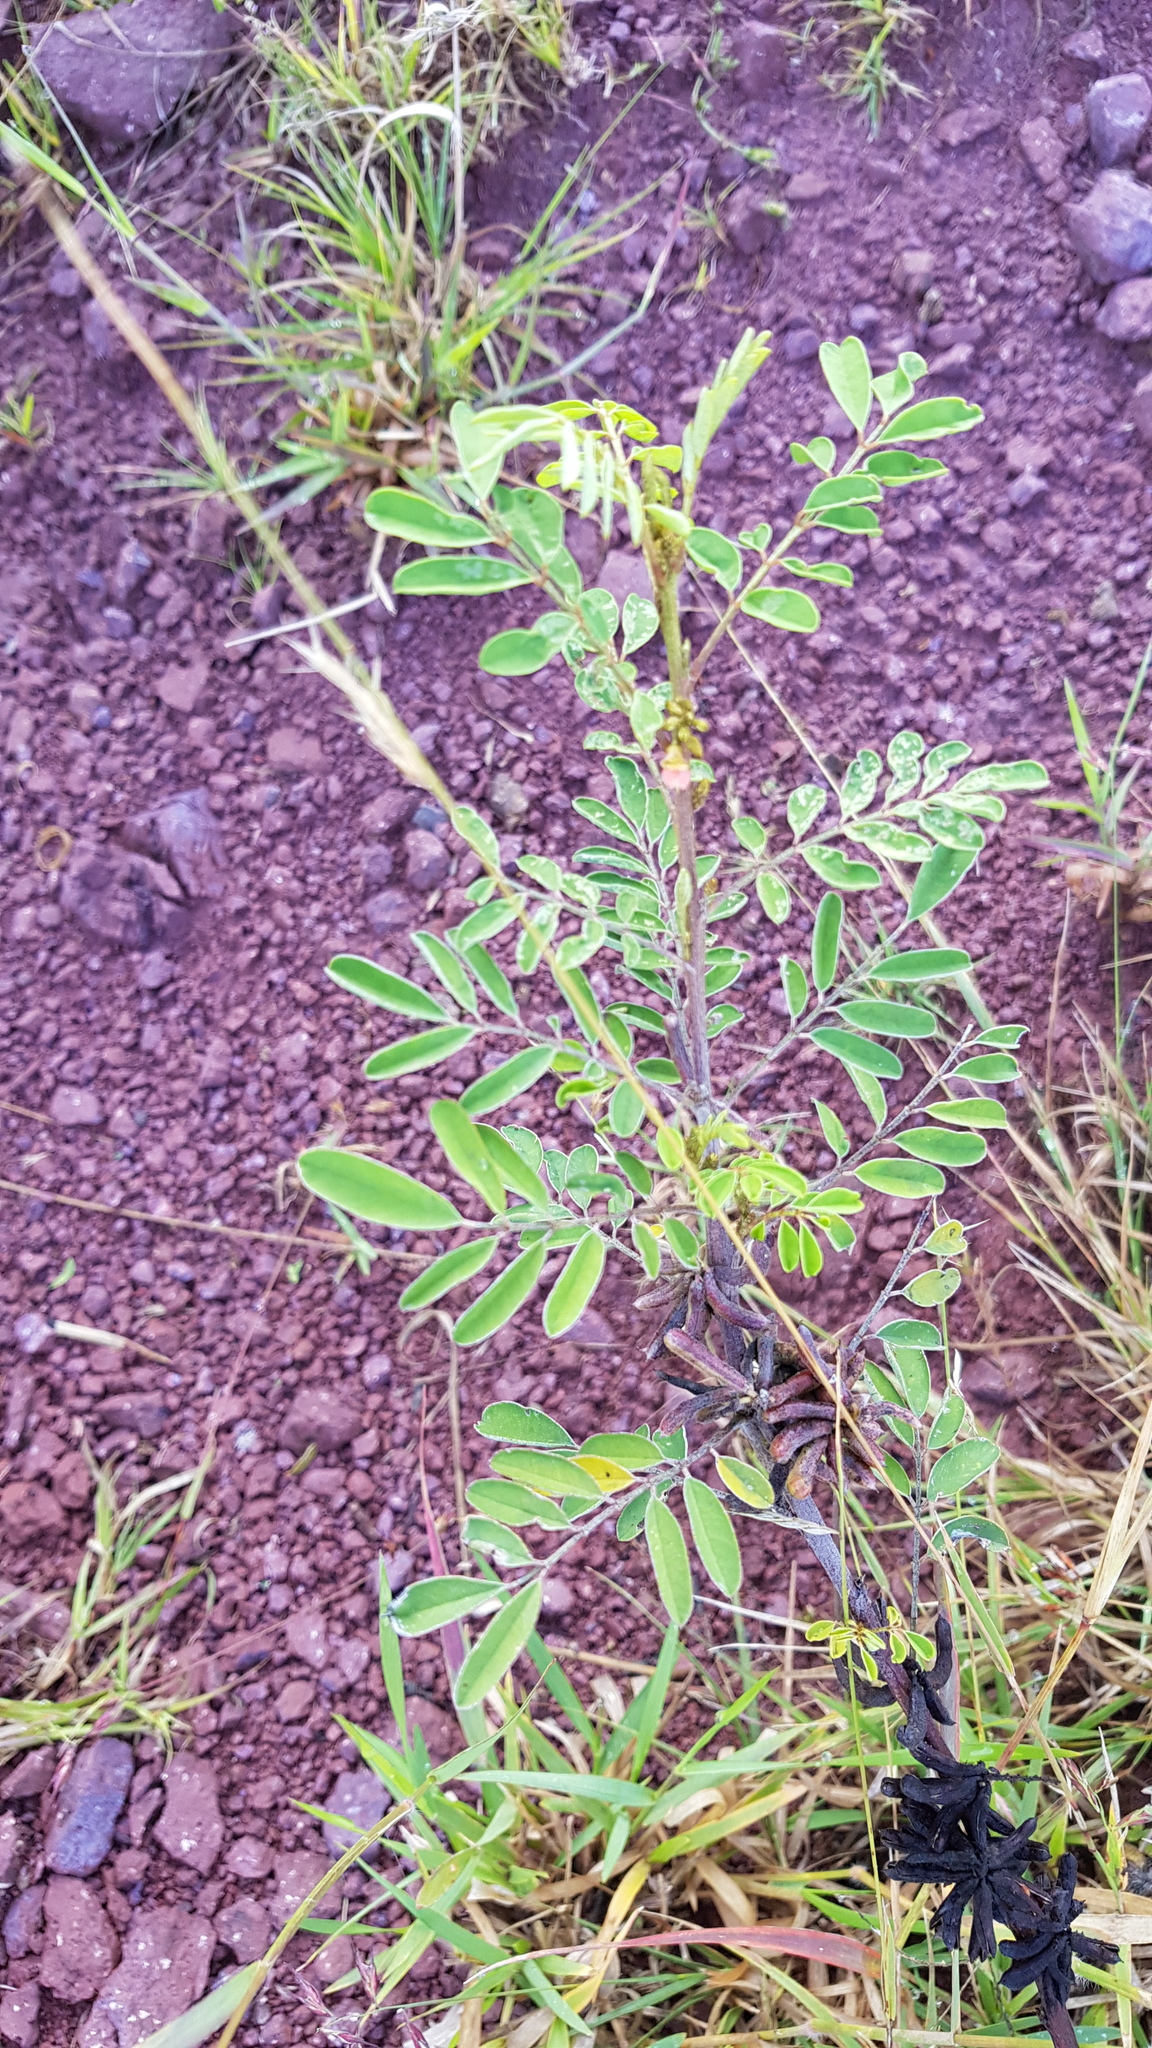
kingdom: Plantae
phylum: Tracheophyta
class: Magnoliopsida
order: Fabales
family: Fabaceae
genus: Indigofera
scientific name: Indigofera suffruticosa
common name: Anil de pasto
